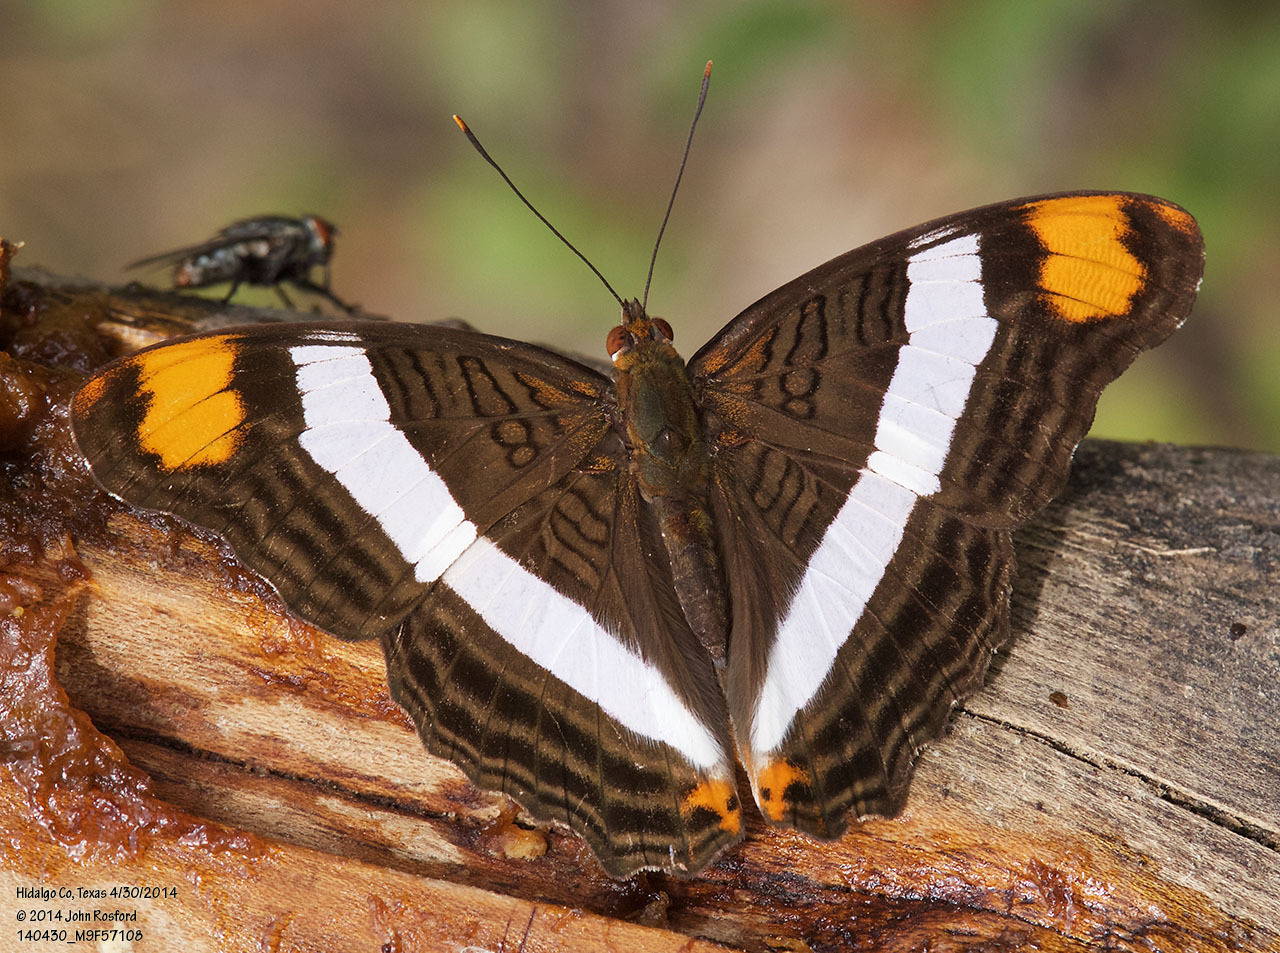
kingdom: Animalia
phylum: Arthropoda
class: Insecta
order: Lepidoptera
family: Nymphalidae
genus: Limenitis
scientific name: Limenitis fessonia
